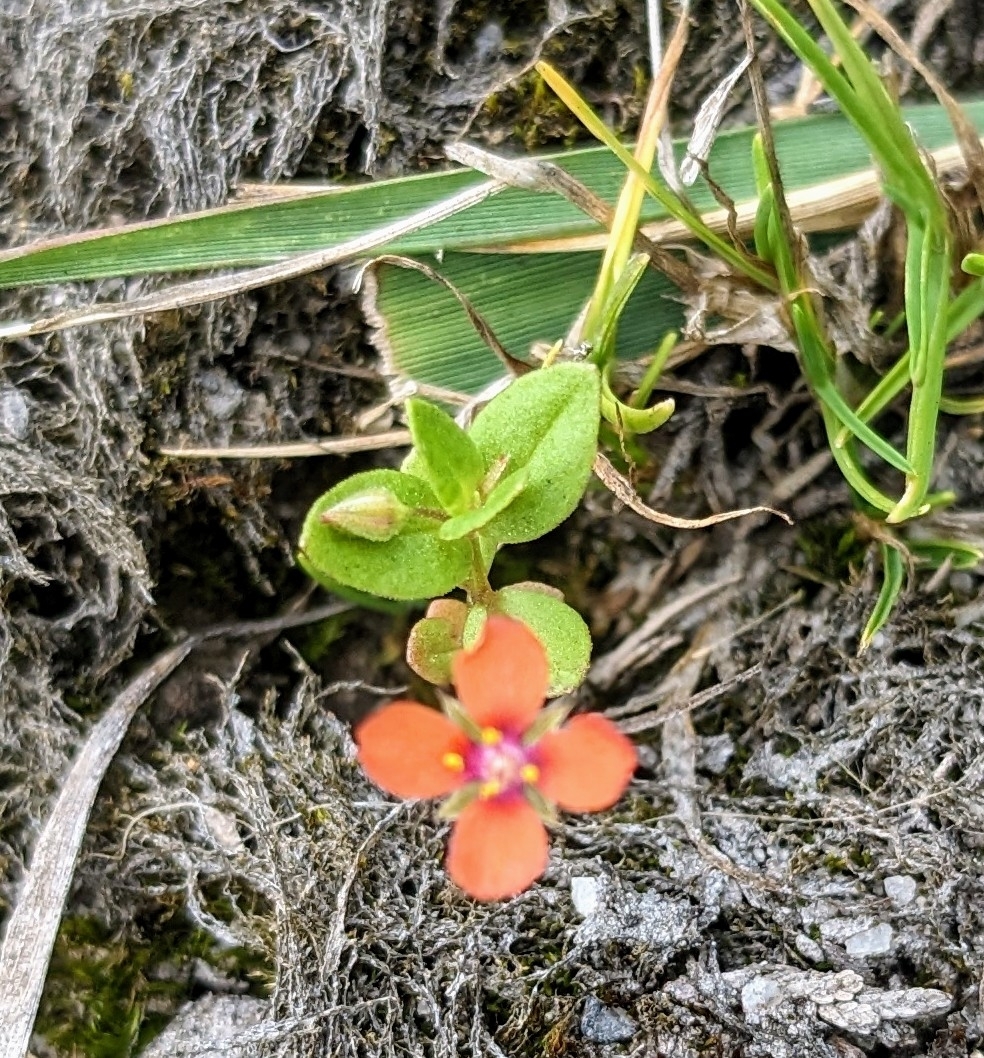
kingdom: Plantae
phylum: Tracheophyta
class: Magnoliopsida
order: Ericales
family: Primulaceae
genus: Lysimachia
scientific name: Lysimachia arvensis
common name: Scarlet pimpernel
